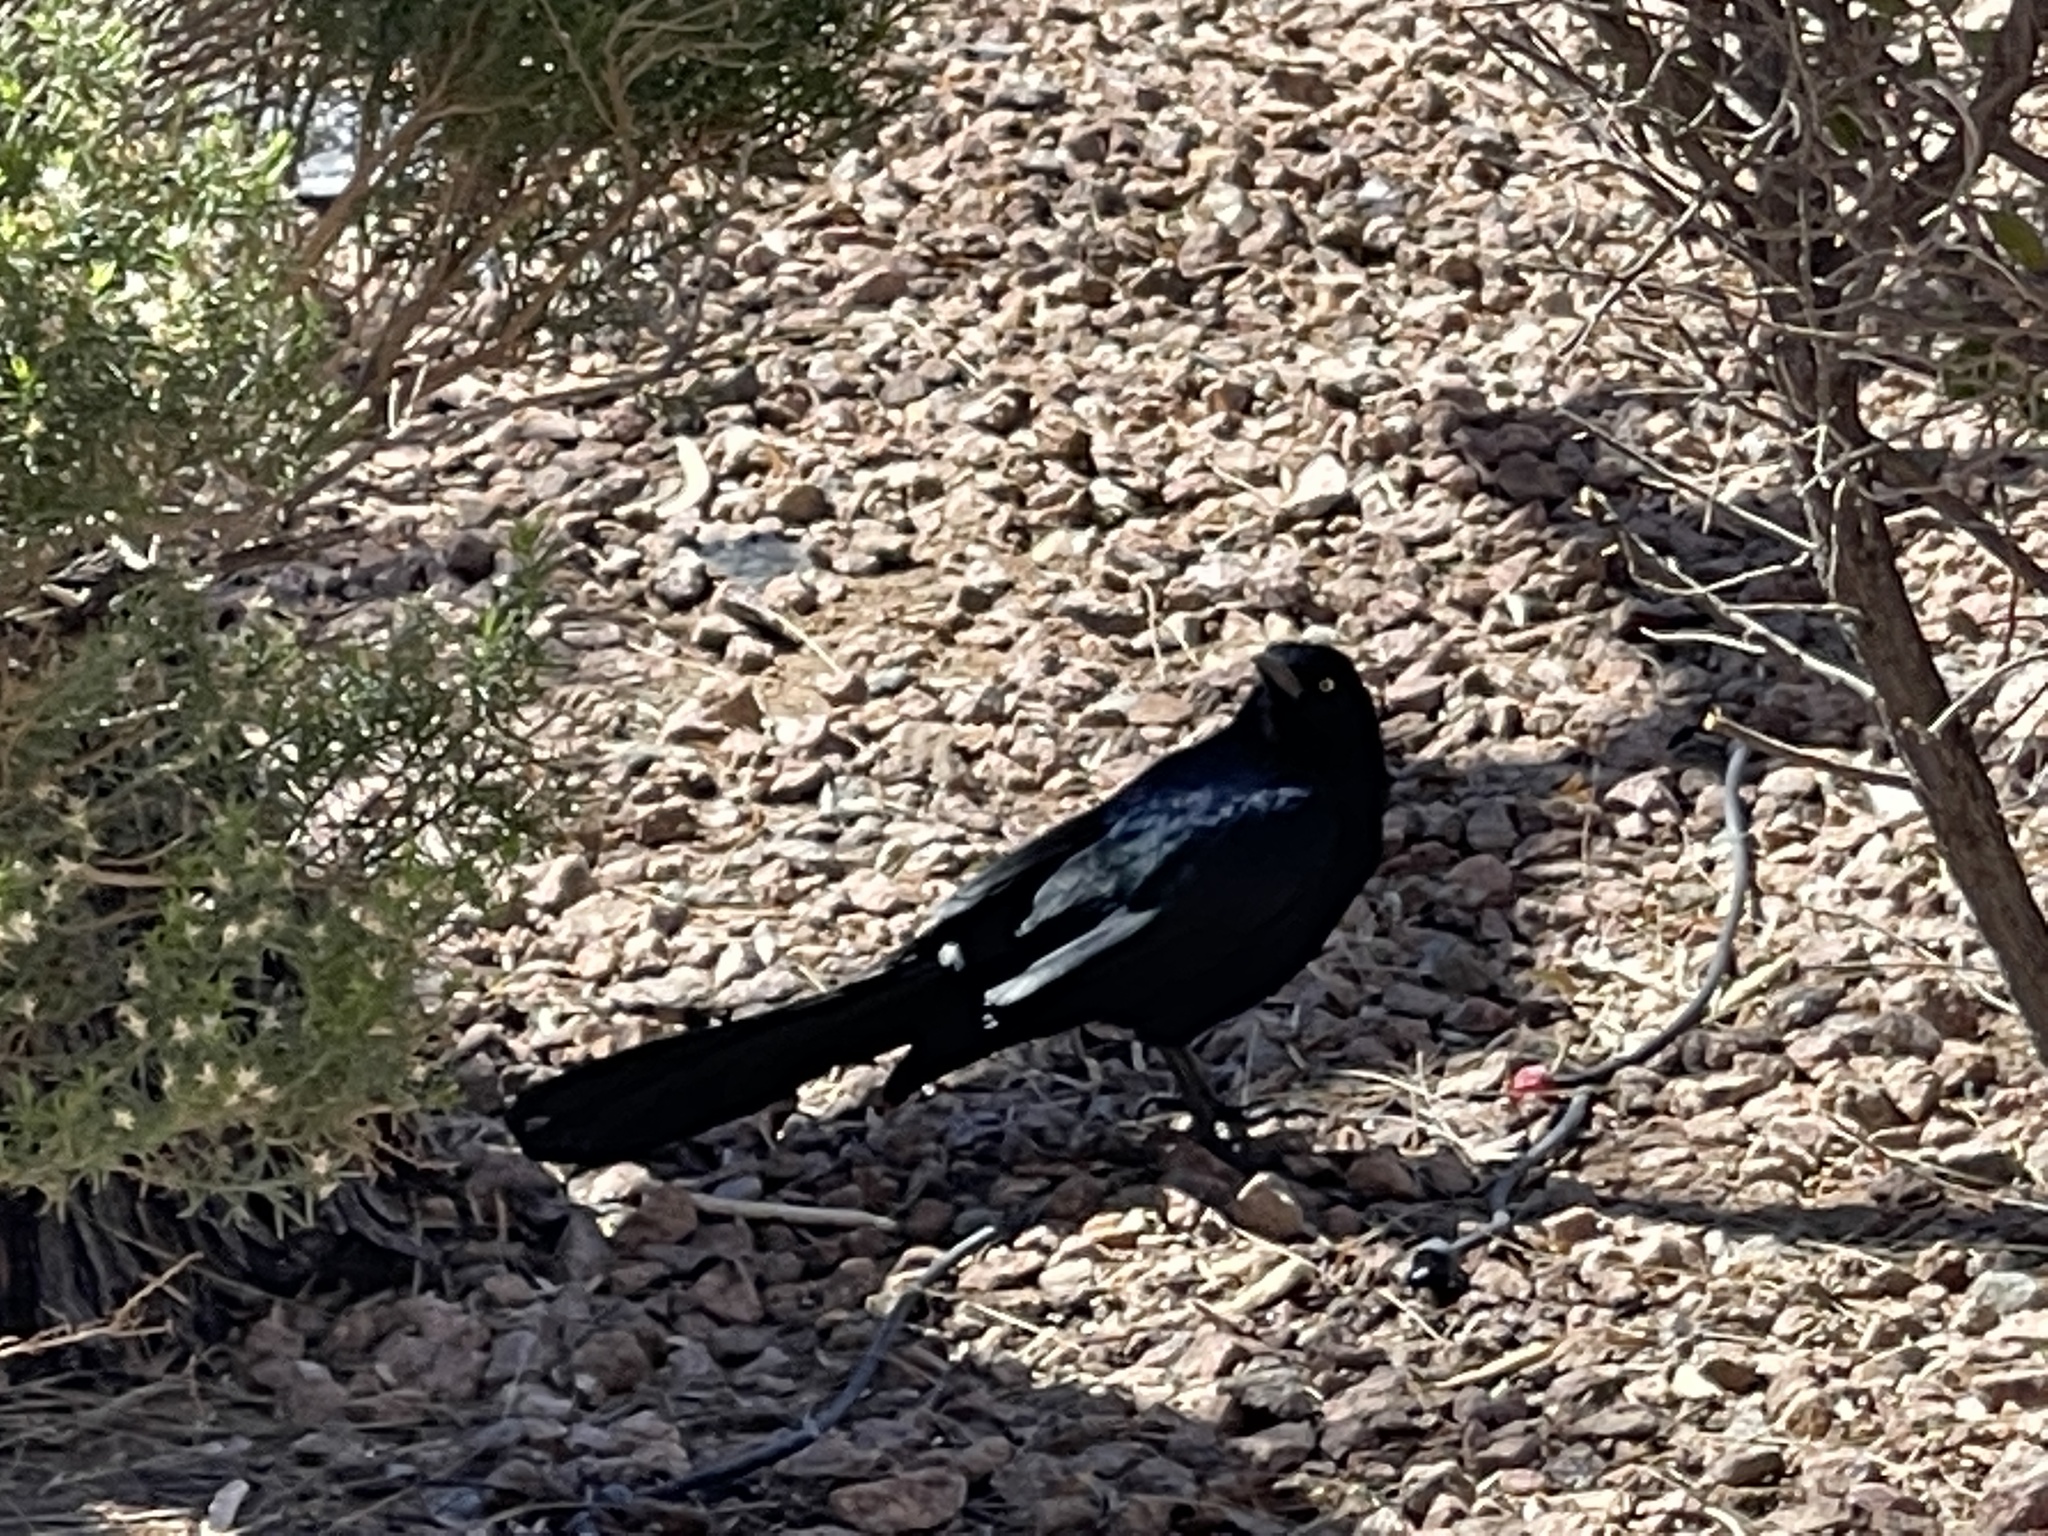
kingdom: Animalia
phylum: Chordata
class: Aves
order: Passeriformes
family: Icteridae
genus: Quiscalus
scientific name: Quiscalus mexicanus
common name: Great-tailed grackle
